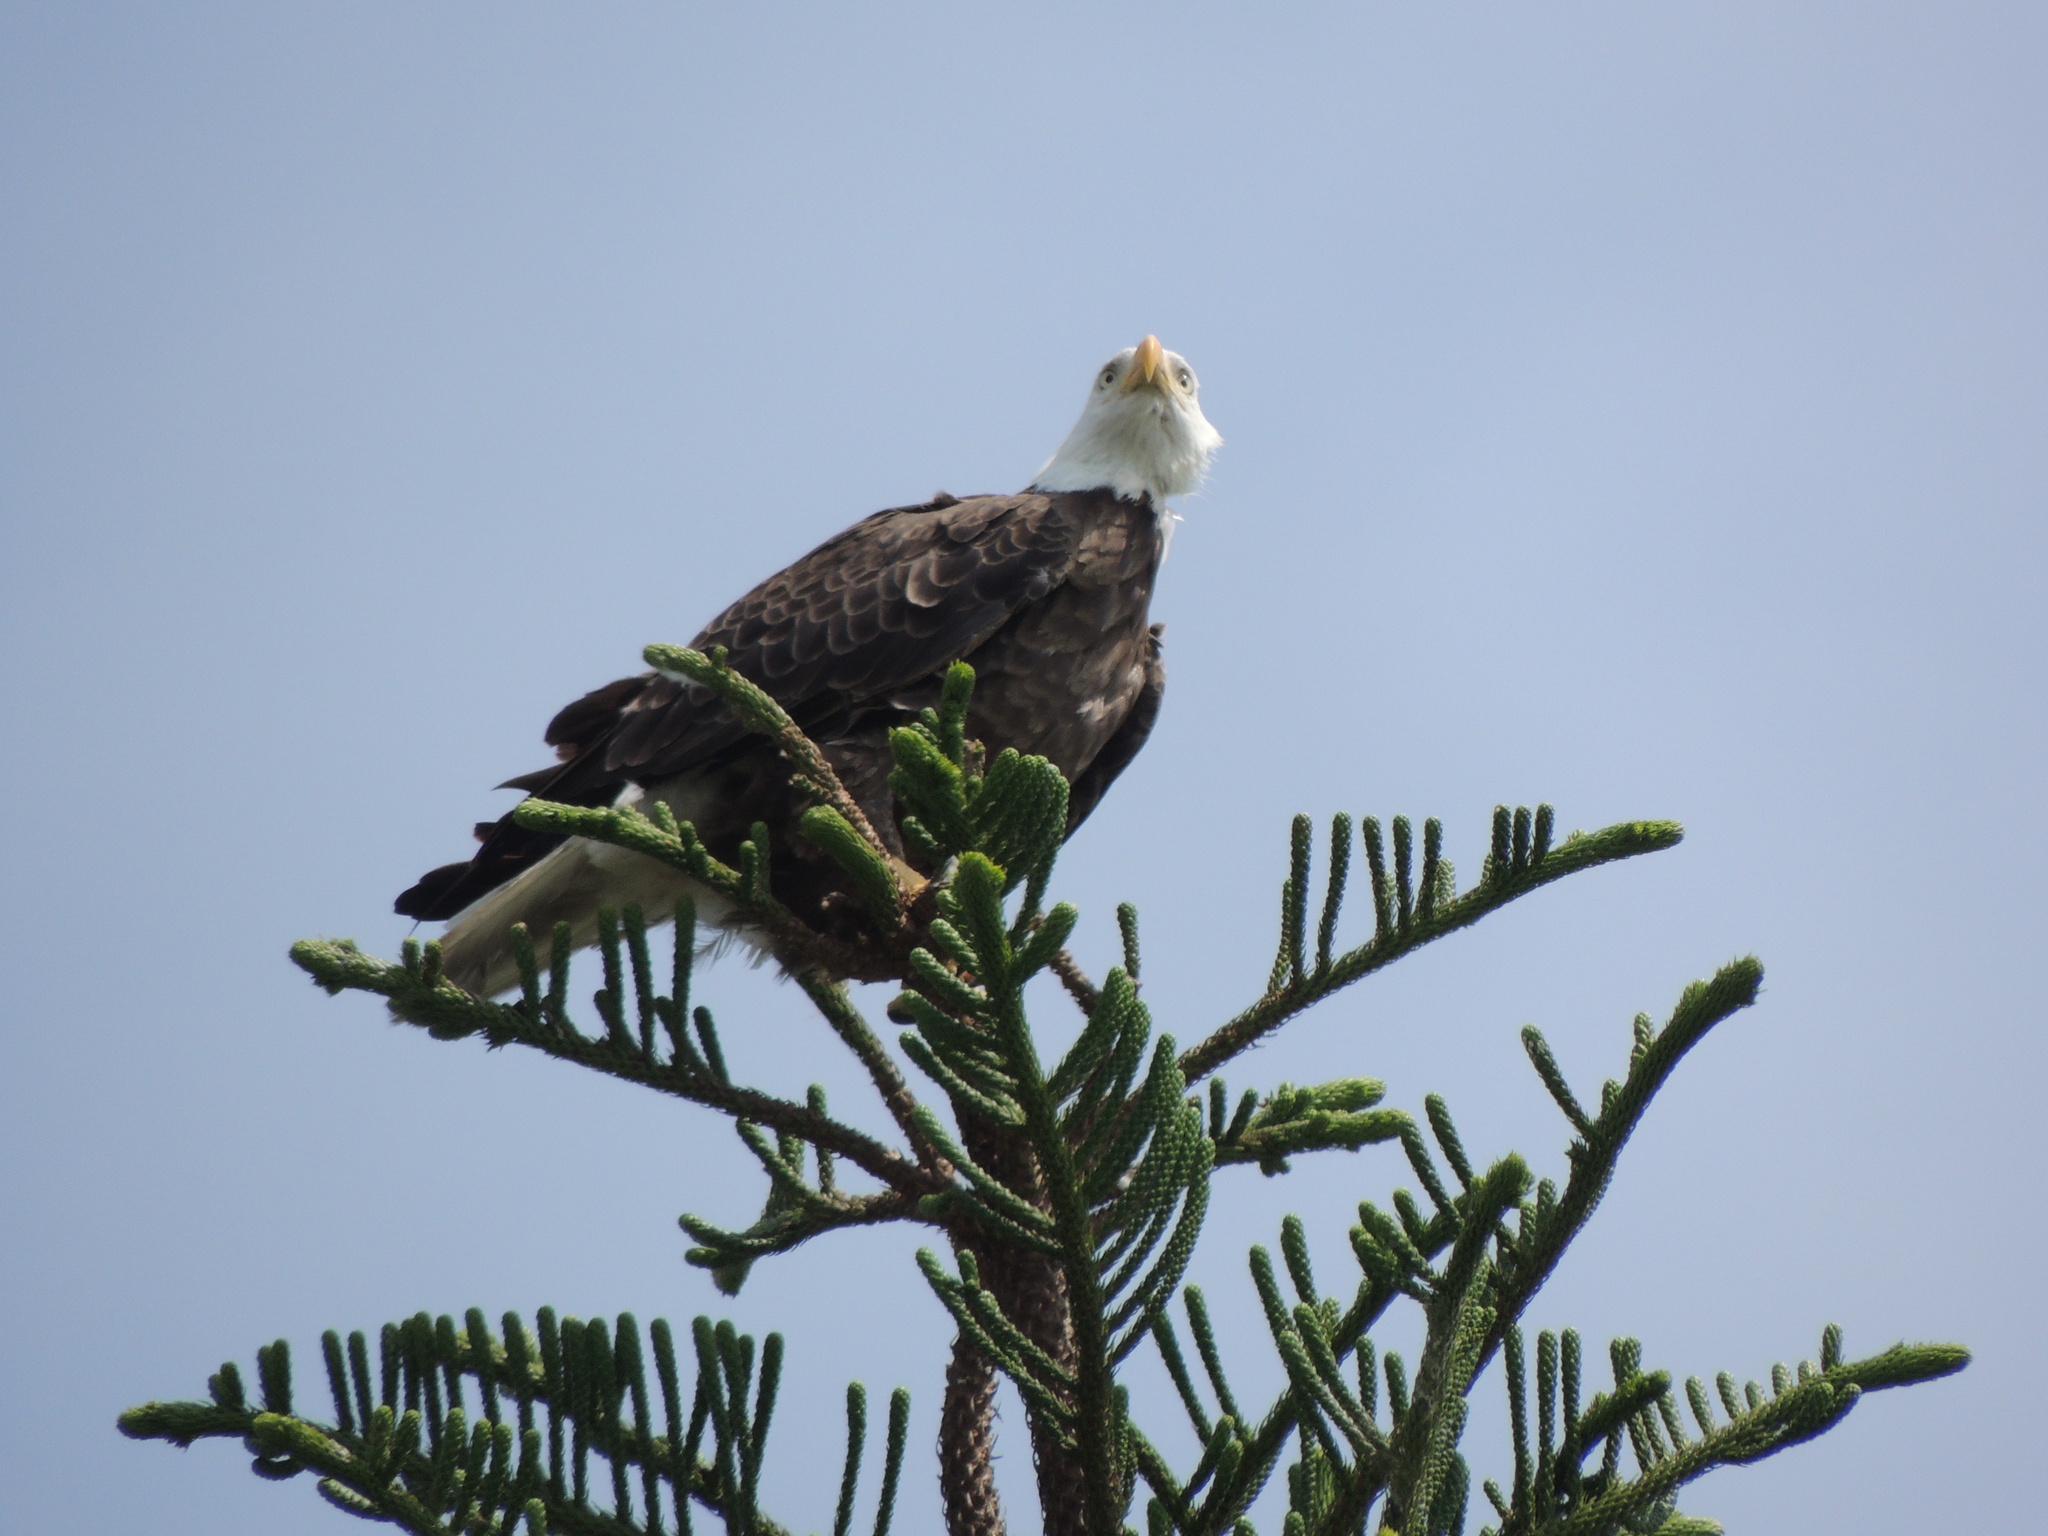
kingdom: Animalia
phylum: Chordata
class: Aves
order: Accipitriformes
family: Accipitridae
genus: Haliaeetus
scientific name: Haliaeetus leucocephalus
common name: Bald eagle
